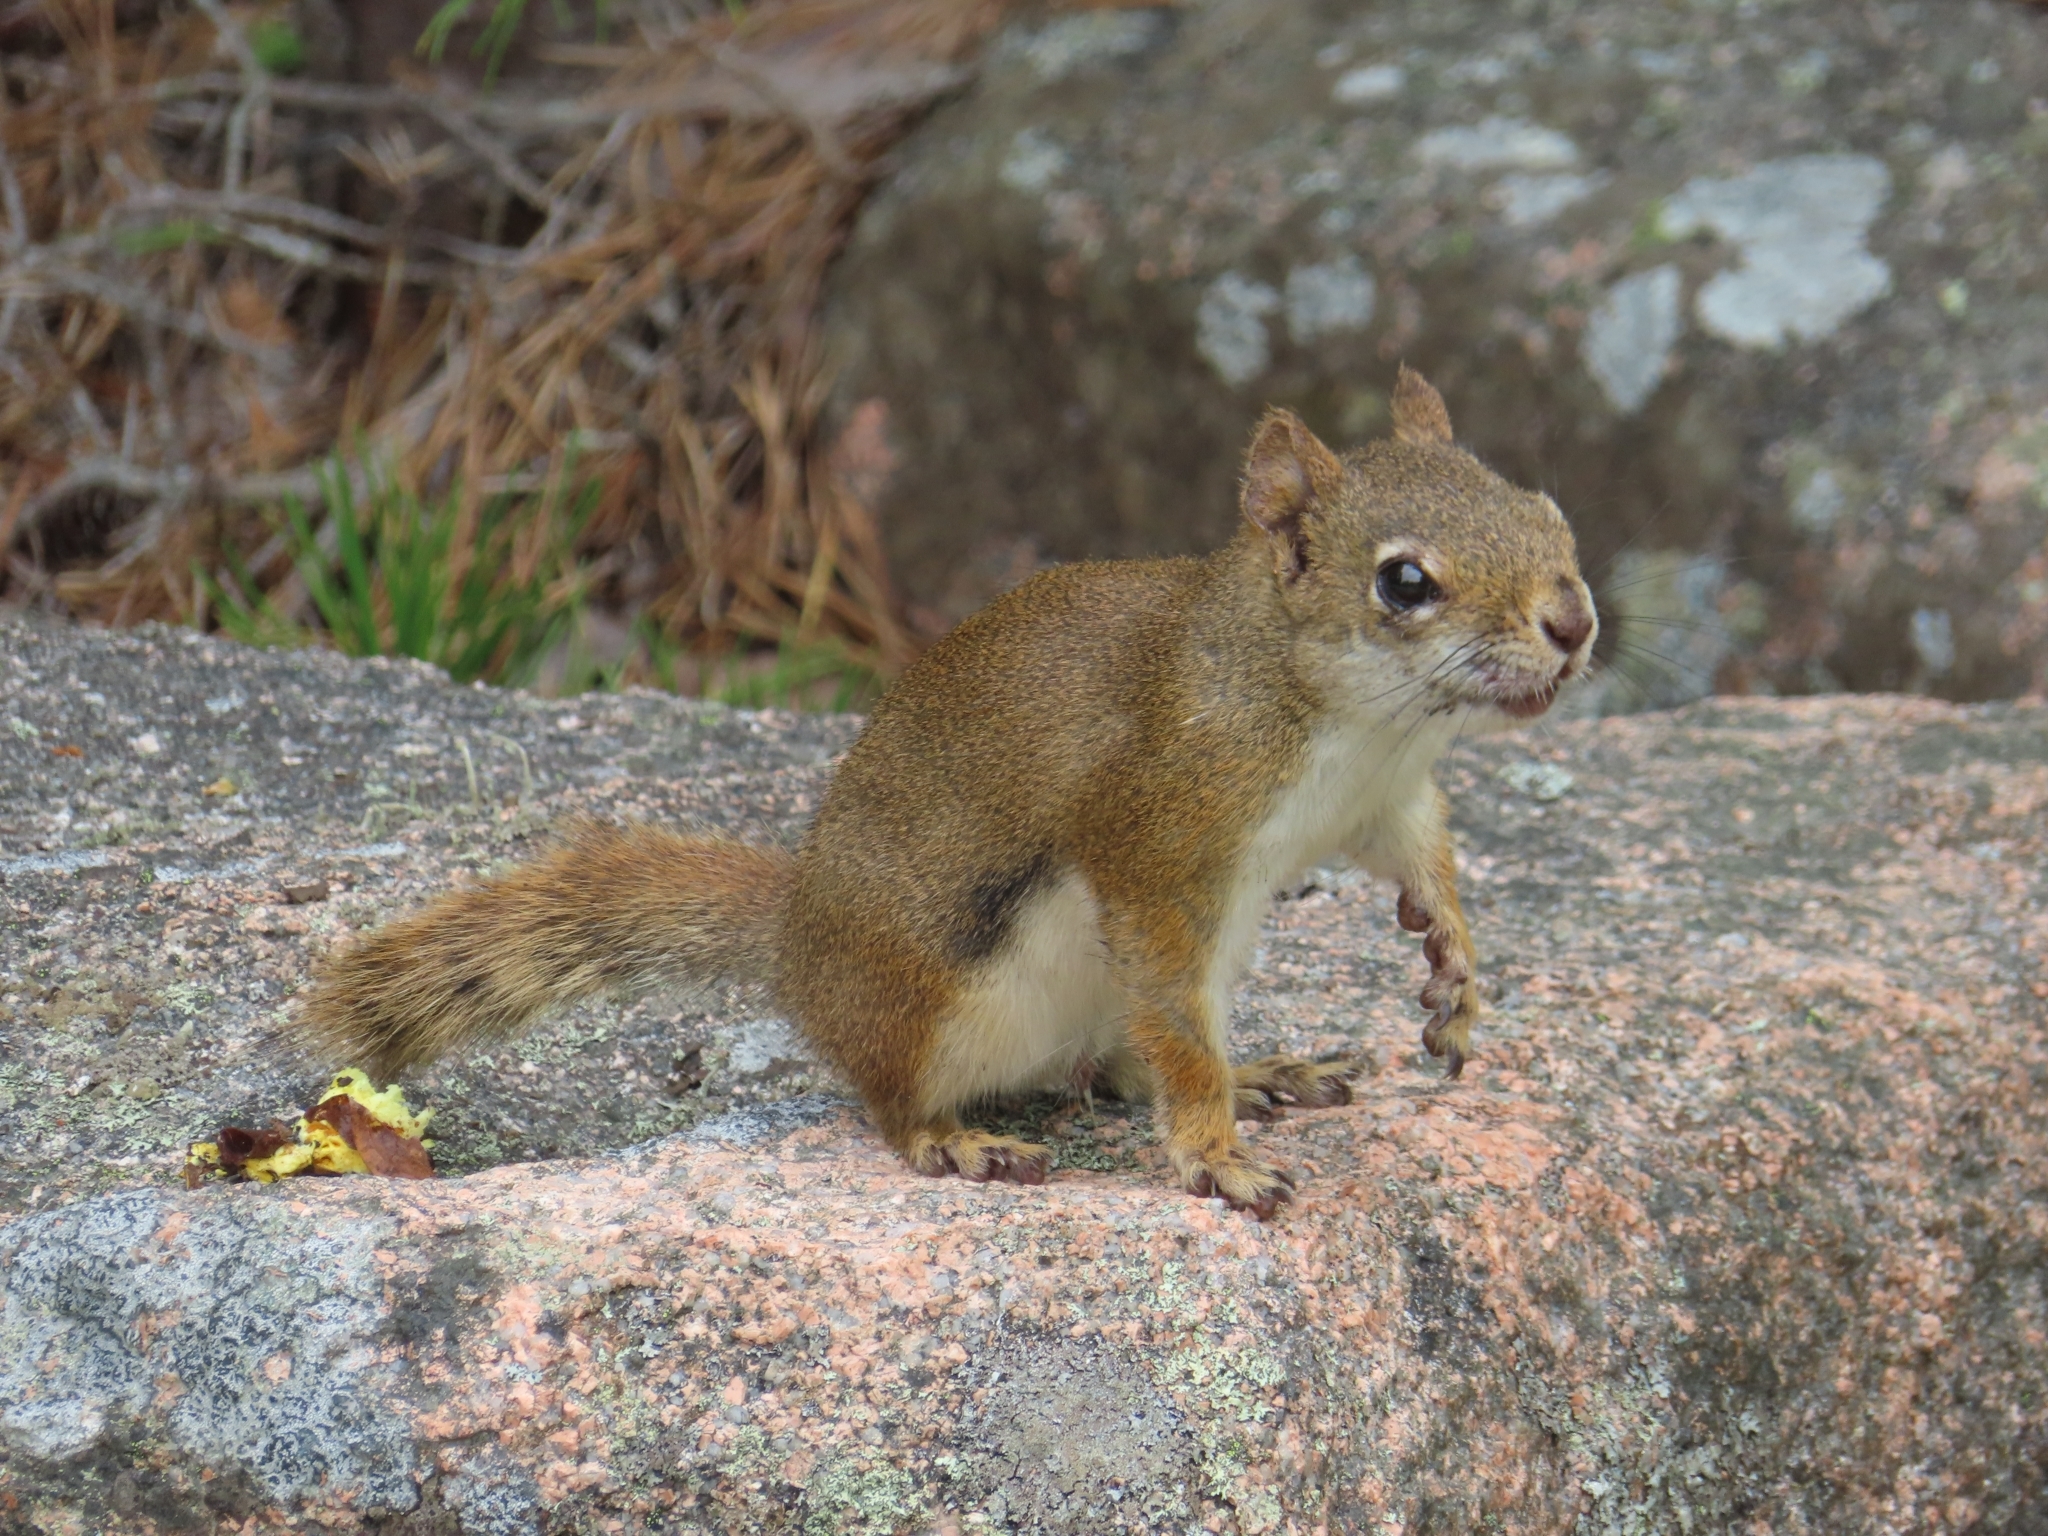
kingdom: Animalia
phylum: Chordata
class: Mammalia
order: Rodentia
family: Sciuridae
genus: Tamiasciurus
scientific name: Tamiasciurus hudsonicus
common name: Red squirrel
